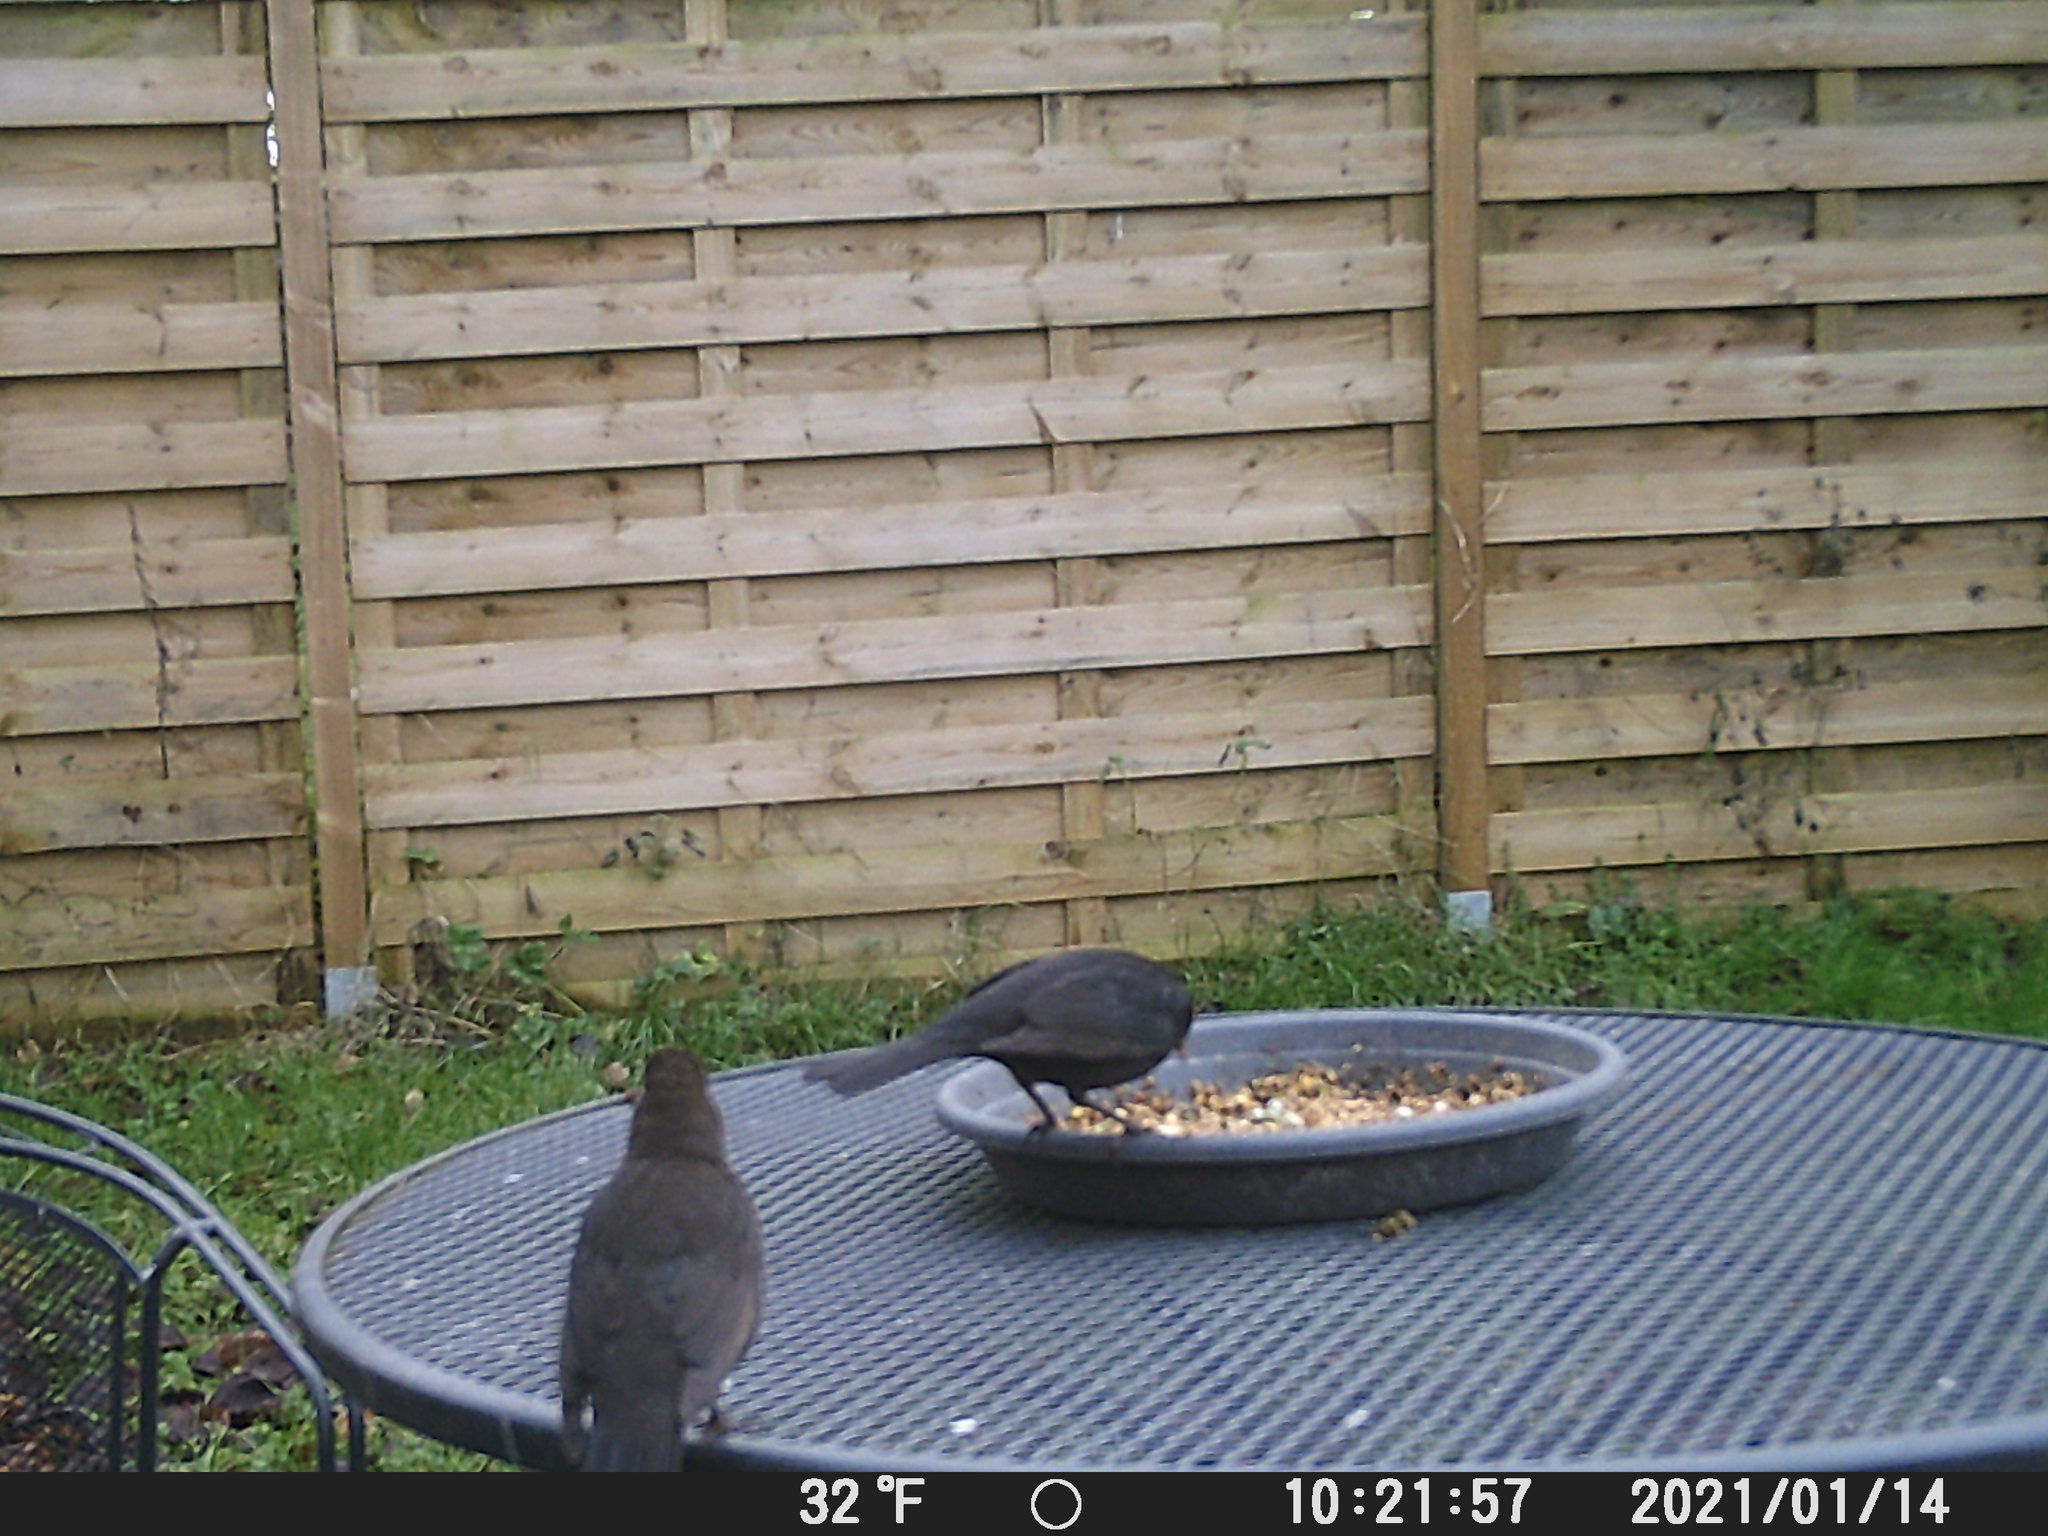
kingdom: Animalia
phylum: Chordata
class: Aves
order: Passeriformes
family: Turdidae
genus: Turdus
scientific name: Turdus merula
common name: Common blackbird
